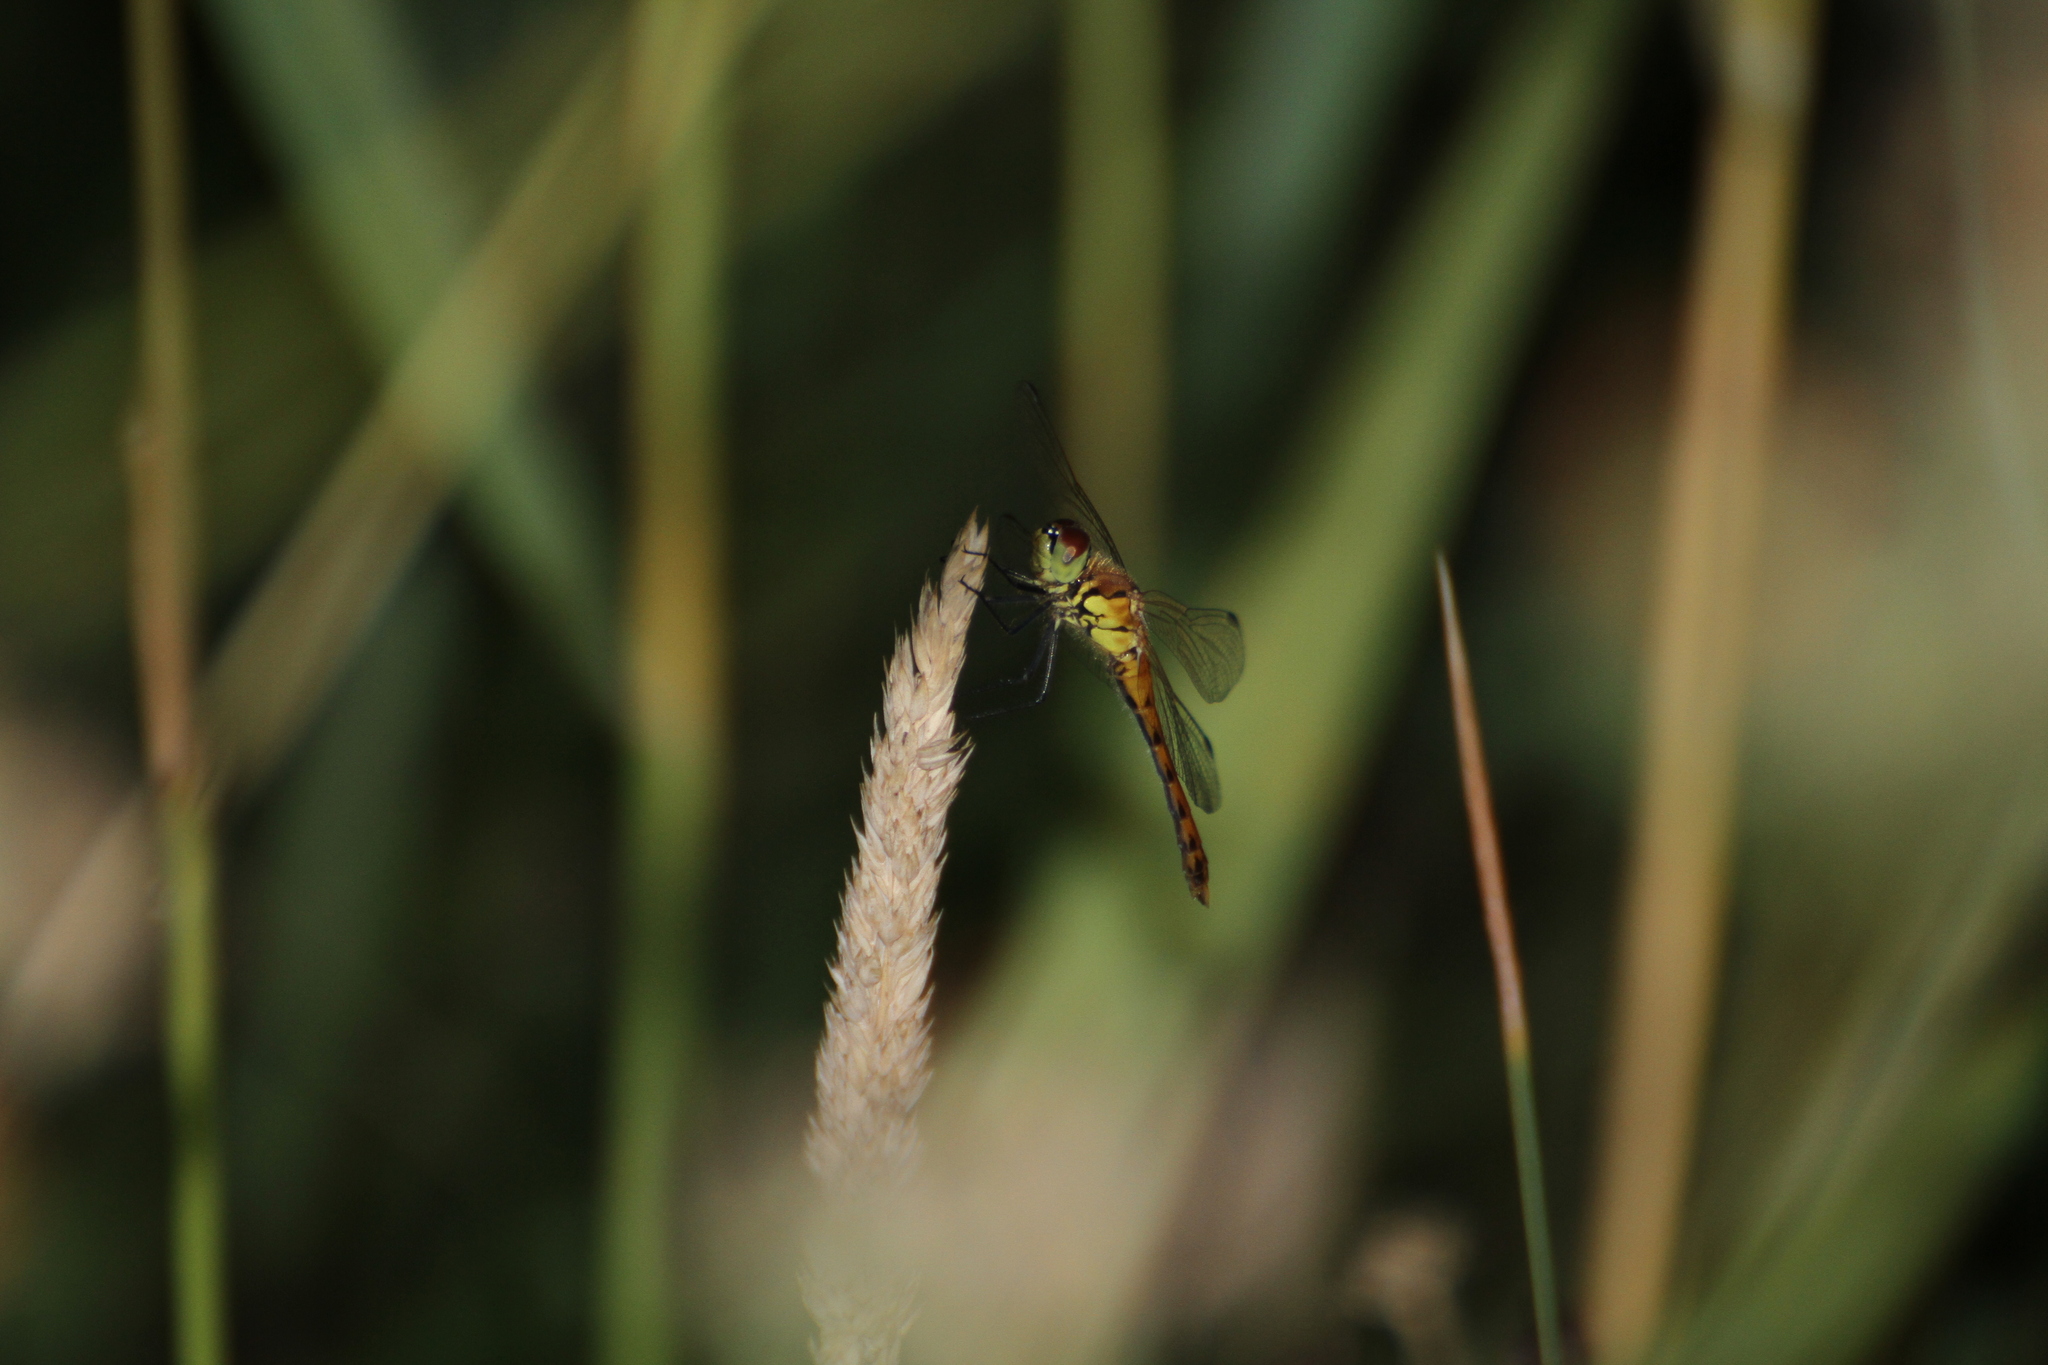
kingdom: Animalia
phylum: Arthropoda
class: Insecta
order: Odonata
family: Libellulidae
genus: Sympetrum
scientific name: Sympetrum depressiusculum
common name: Spotted darter
